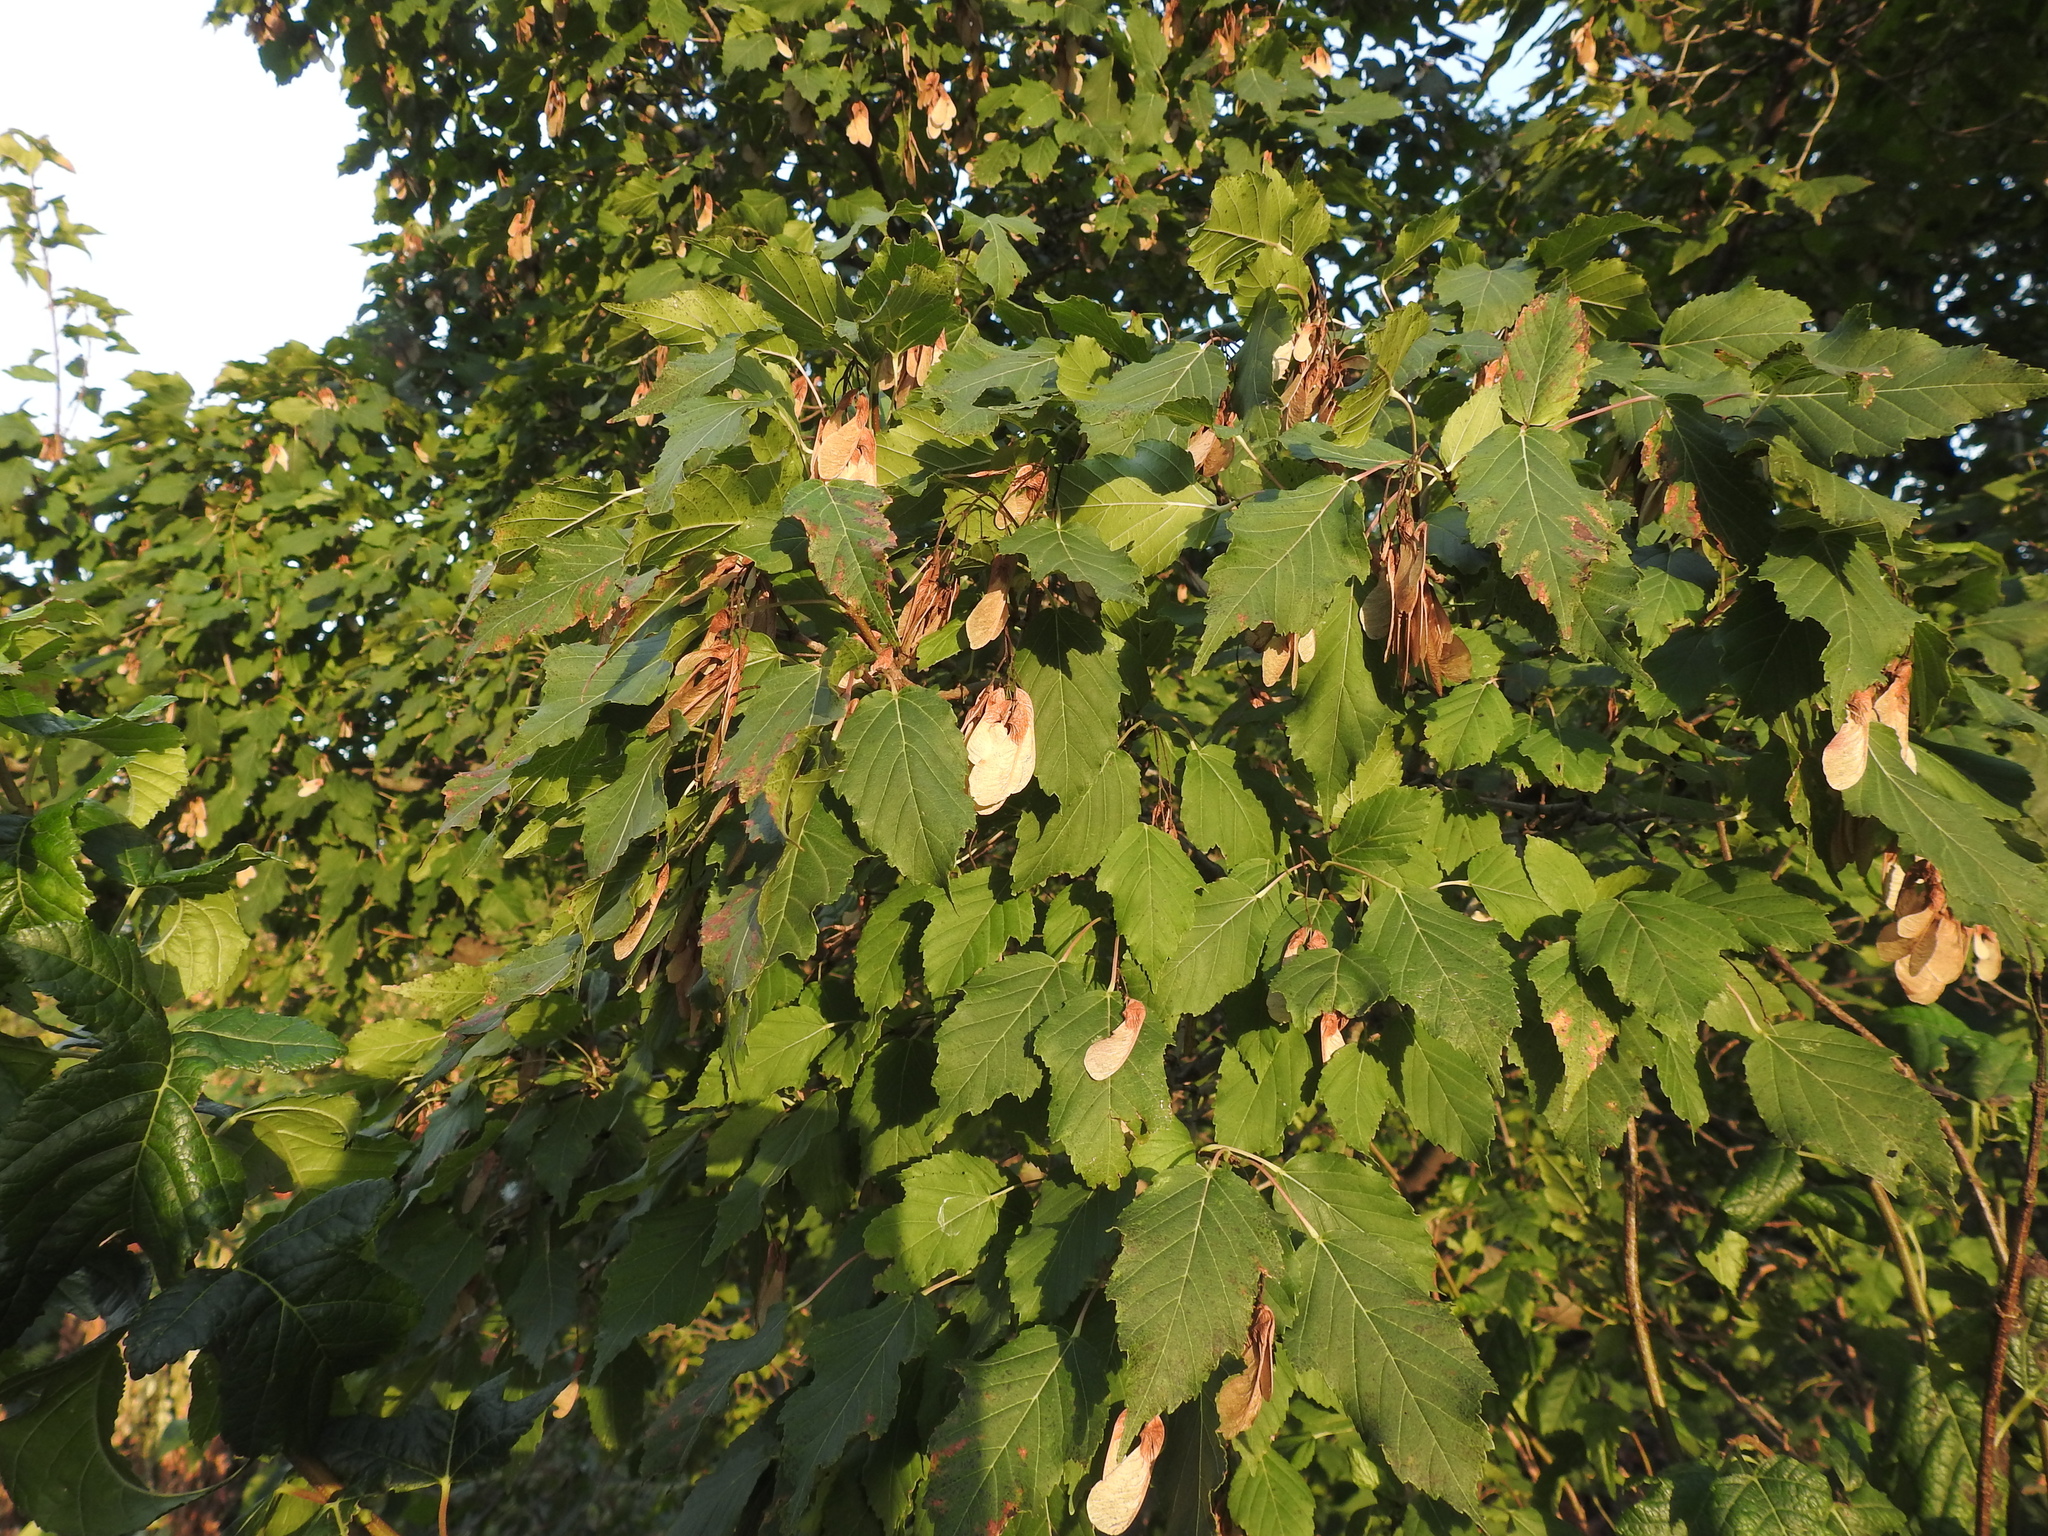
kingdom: Plantae
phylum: Tracheophyta
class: Magnoliopsida
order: Sapindales
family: Sapindaceae
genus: Acer
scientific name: Acer tataricum
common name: Tartar maple
